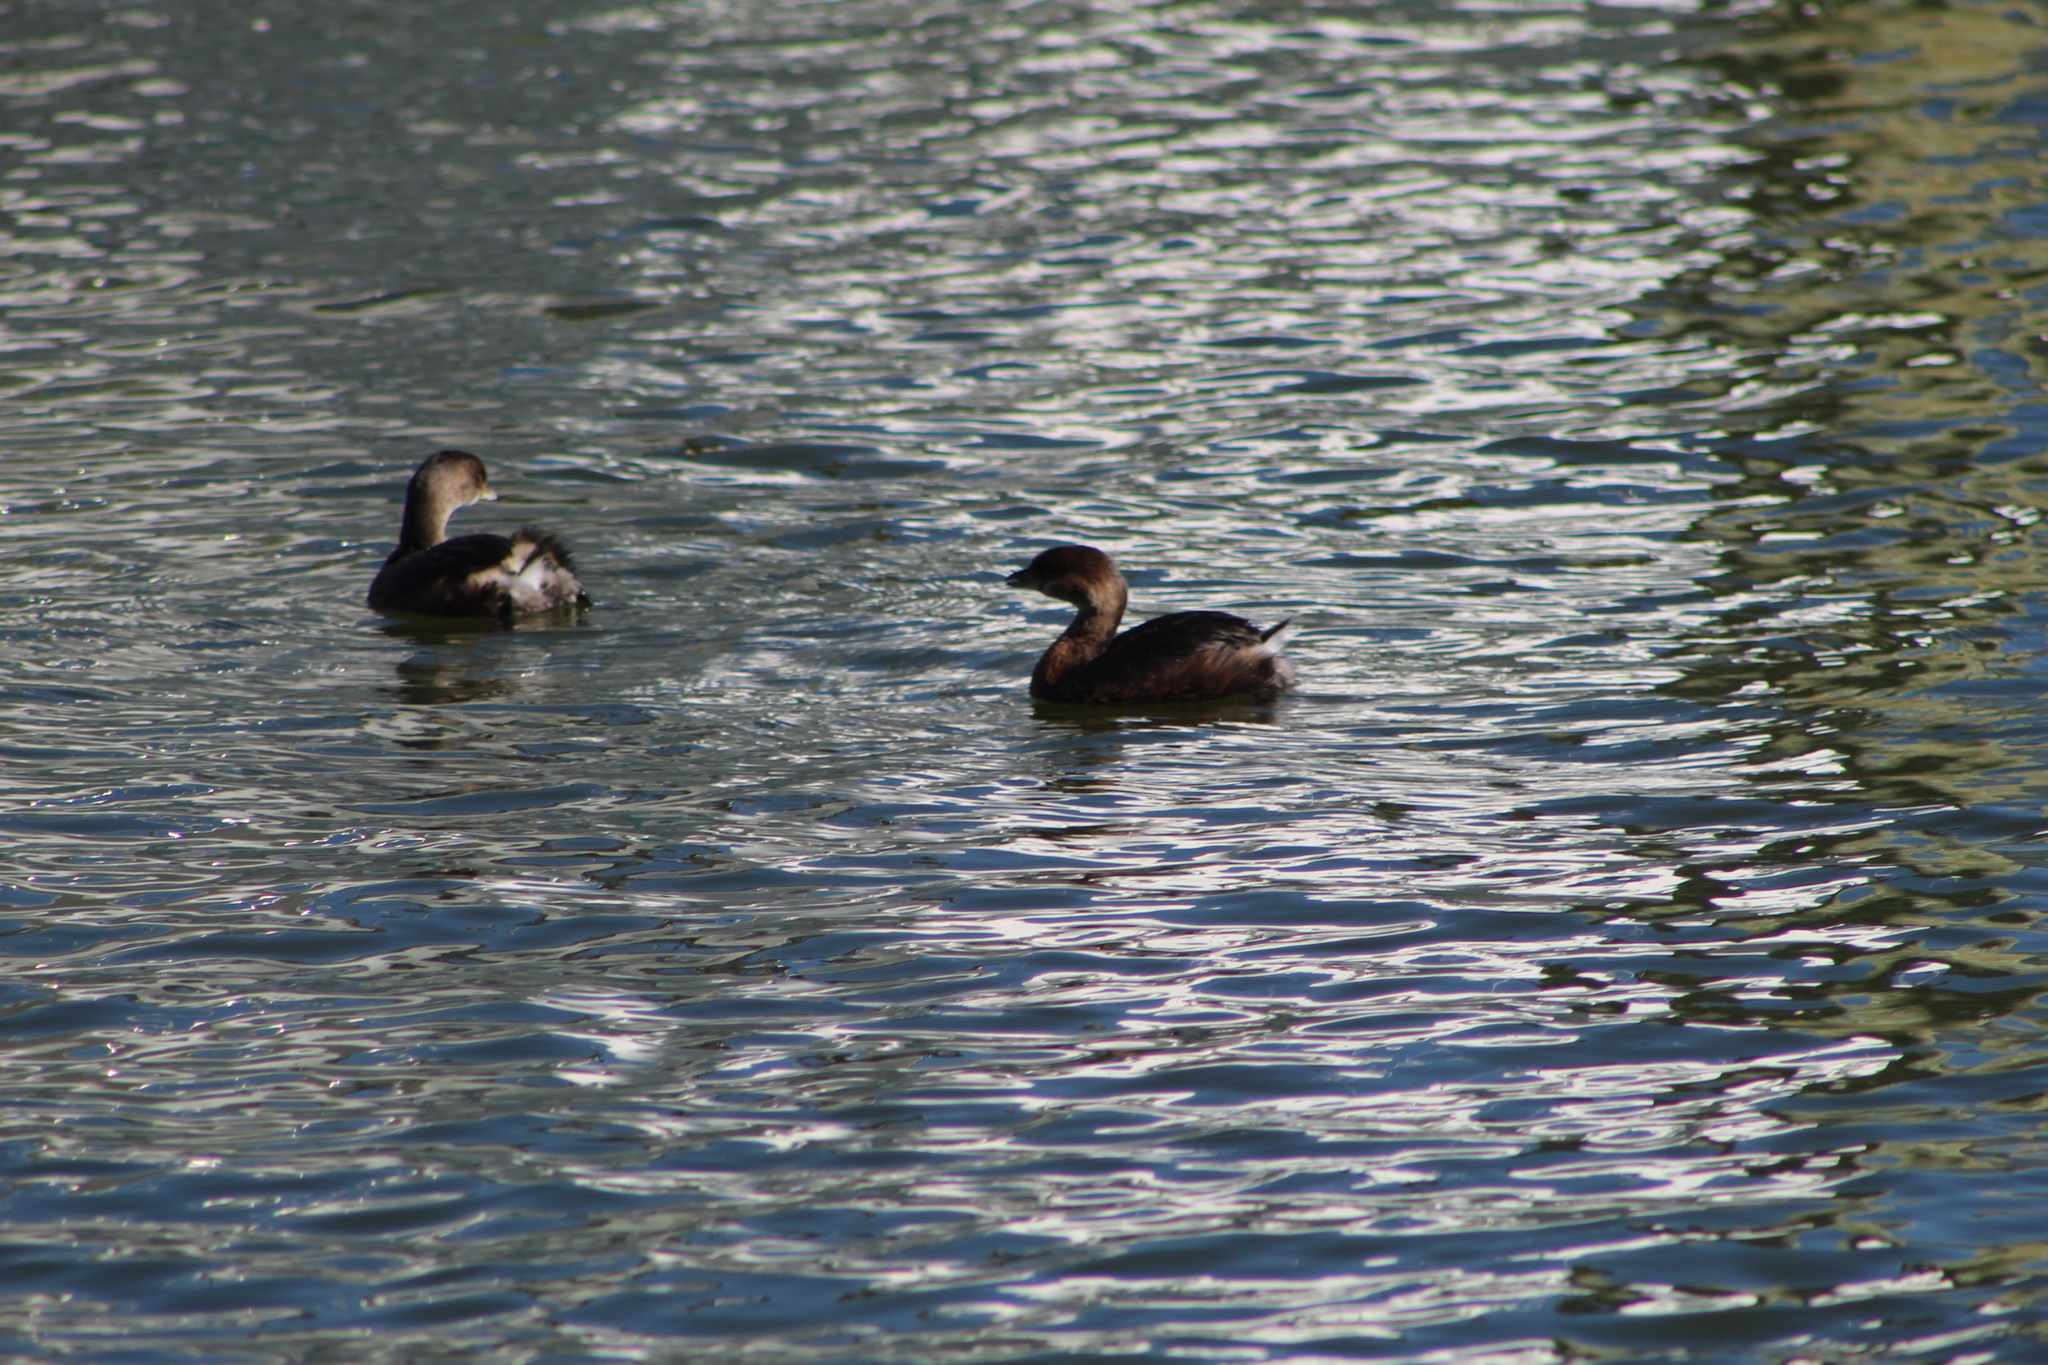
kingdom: Animalia
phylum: Chordata
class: Aves
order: Podicipediformes
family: Podicipedidae
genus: Podilymbus
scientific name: Podilymbus podiceps
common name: Pied-billed grebe
